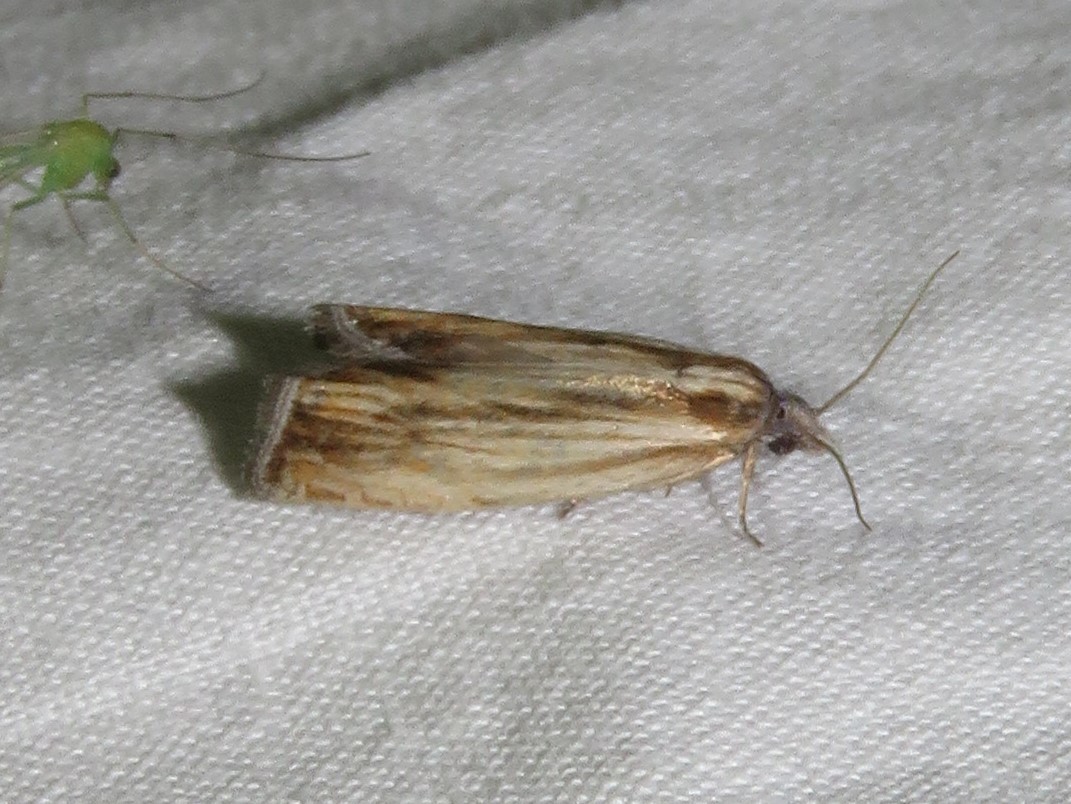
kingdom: Animalia
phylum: Arthropoda
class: Insecta
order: Lepidoptera
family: Tortricidae
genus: Eucosma
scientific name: Eucosma radiatana
